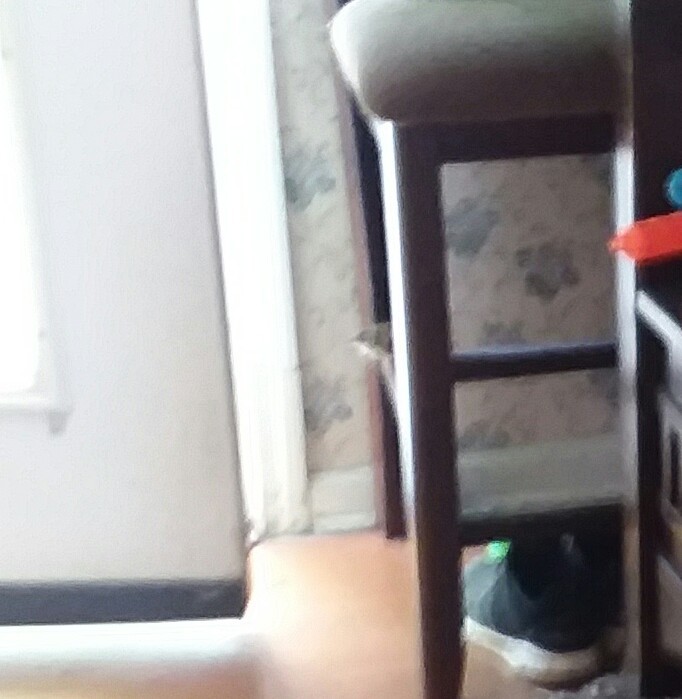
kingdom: Animalia
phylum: Chordata
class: Aves
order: Passeriformes
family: Troglodytidae
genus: Thryothorus
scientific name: Thryothorus ludovicianus
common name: Carolina wren
